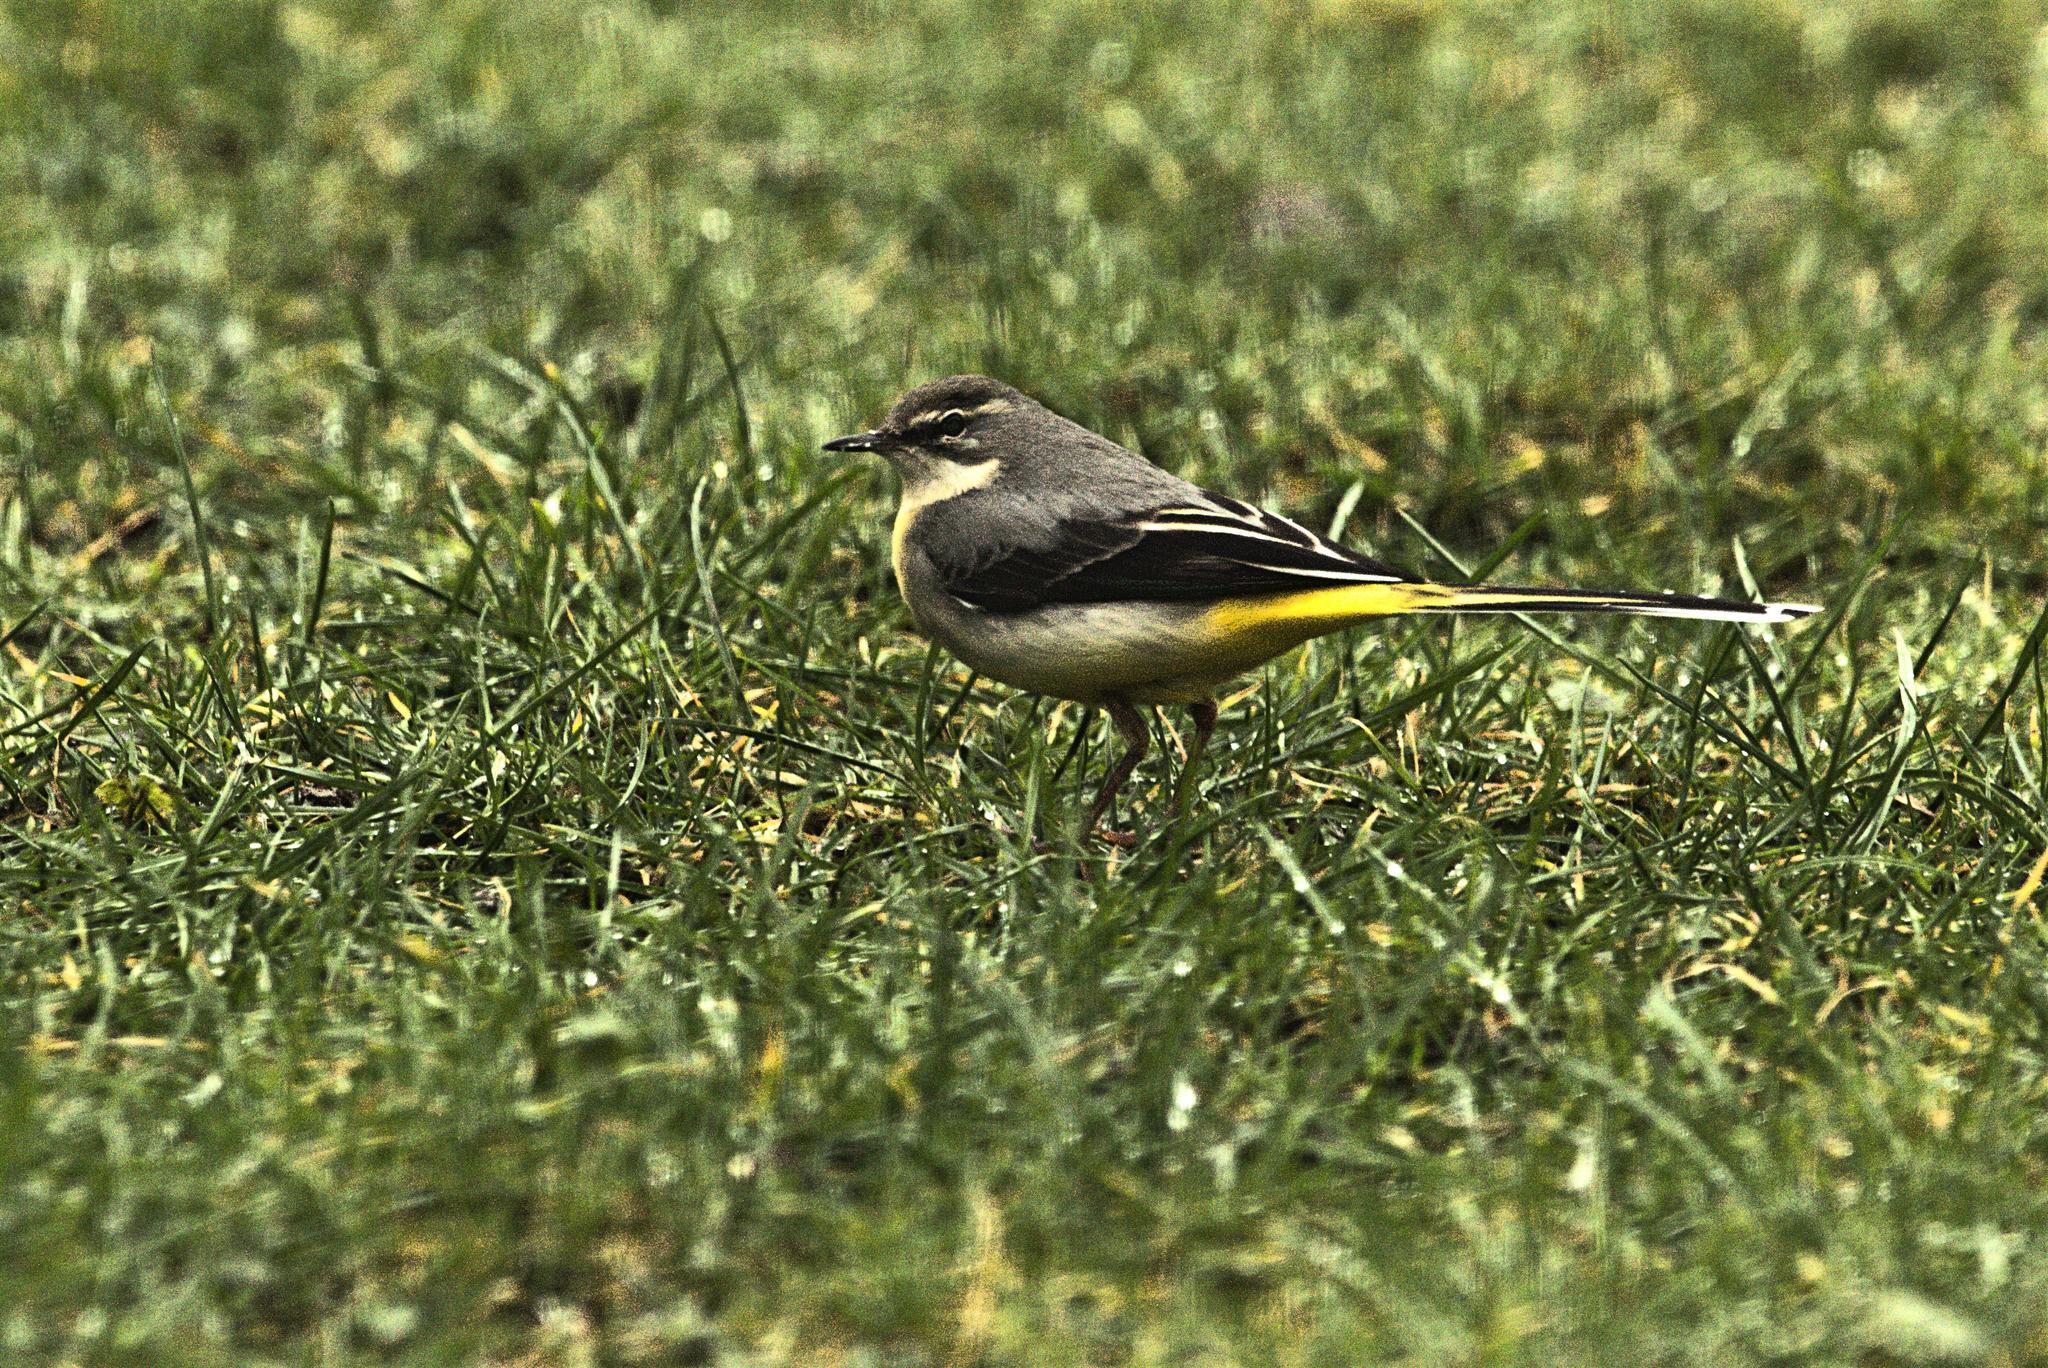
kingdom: Animalia
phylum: Chordata
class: Aves
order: Passeriformes
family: Motacillidae
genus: Motacilla
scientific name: Motacilla cinerea
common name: Grey wagtail
